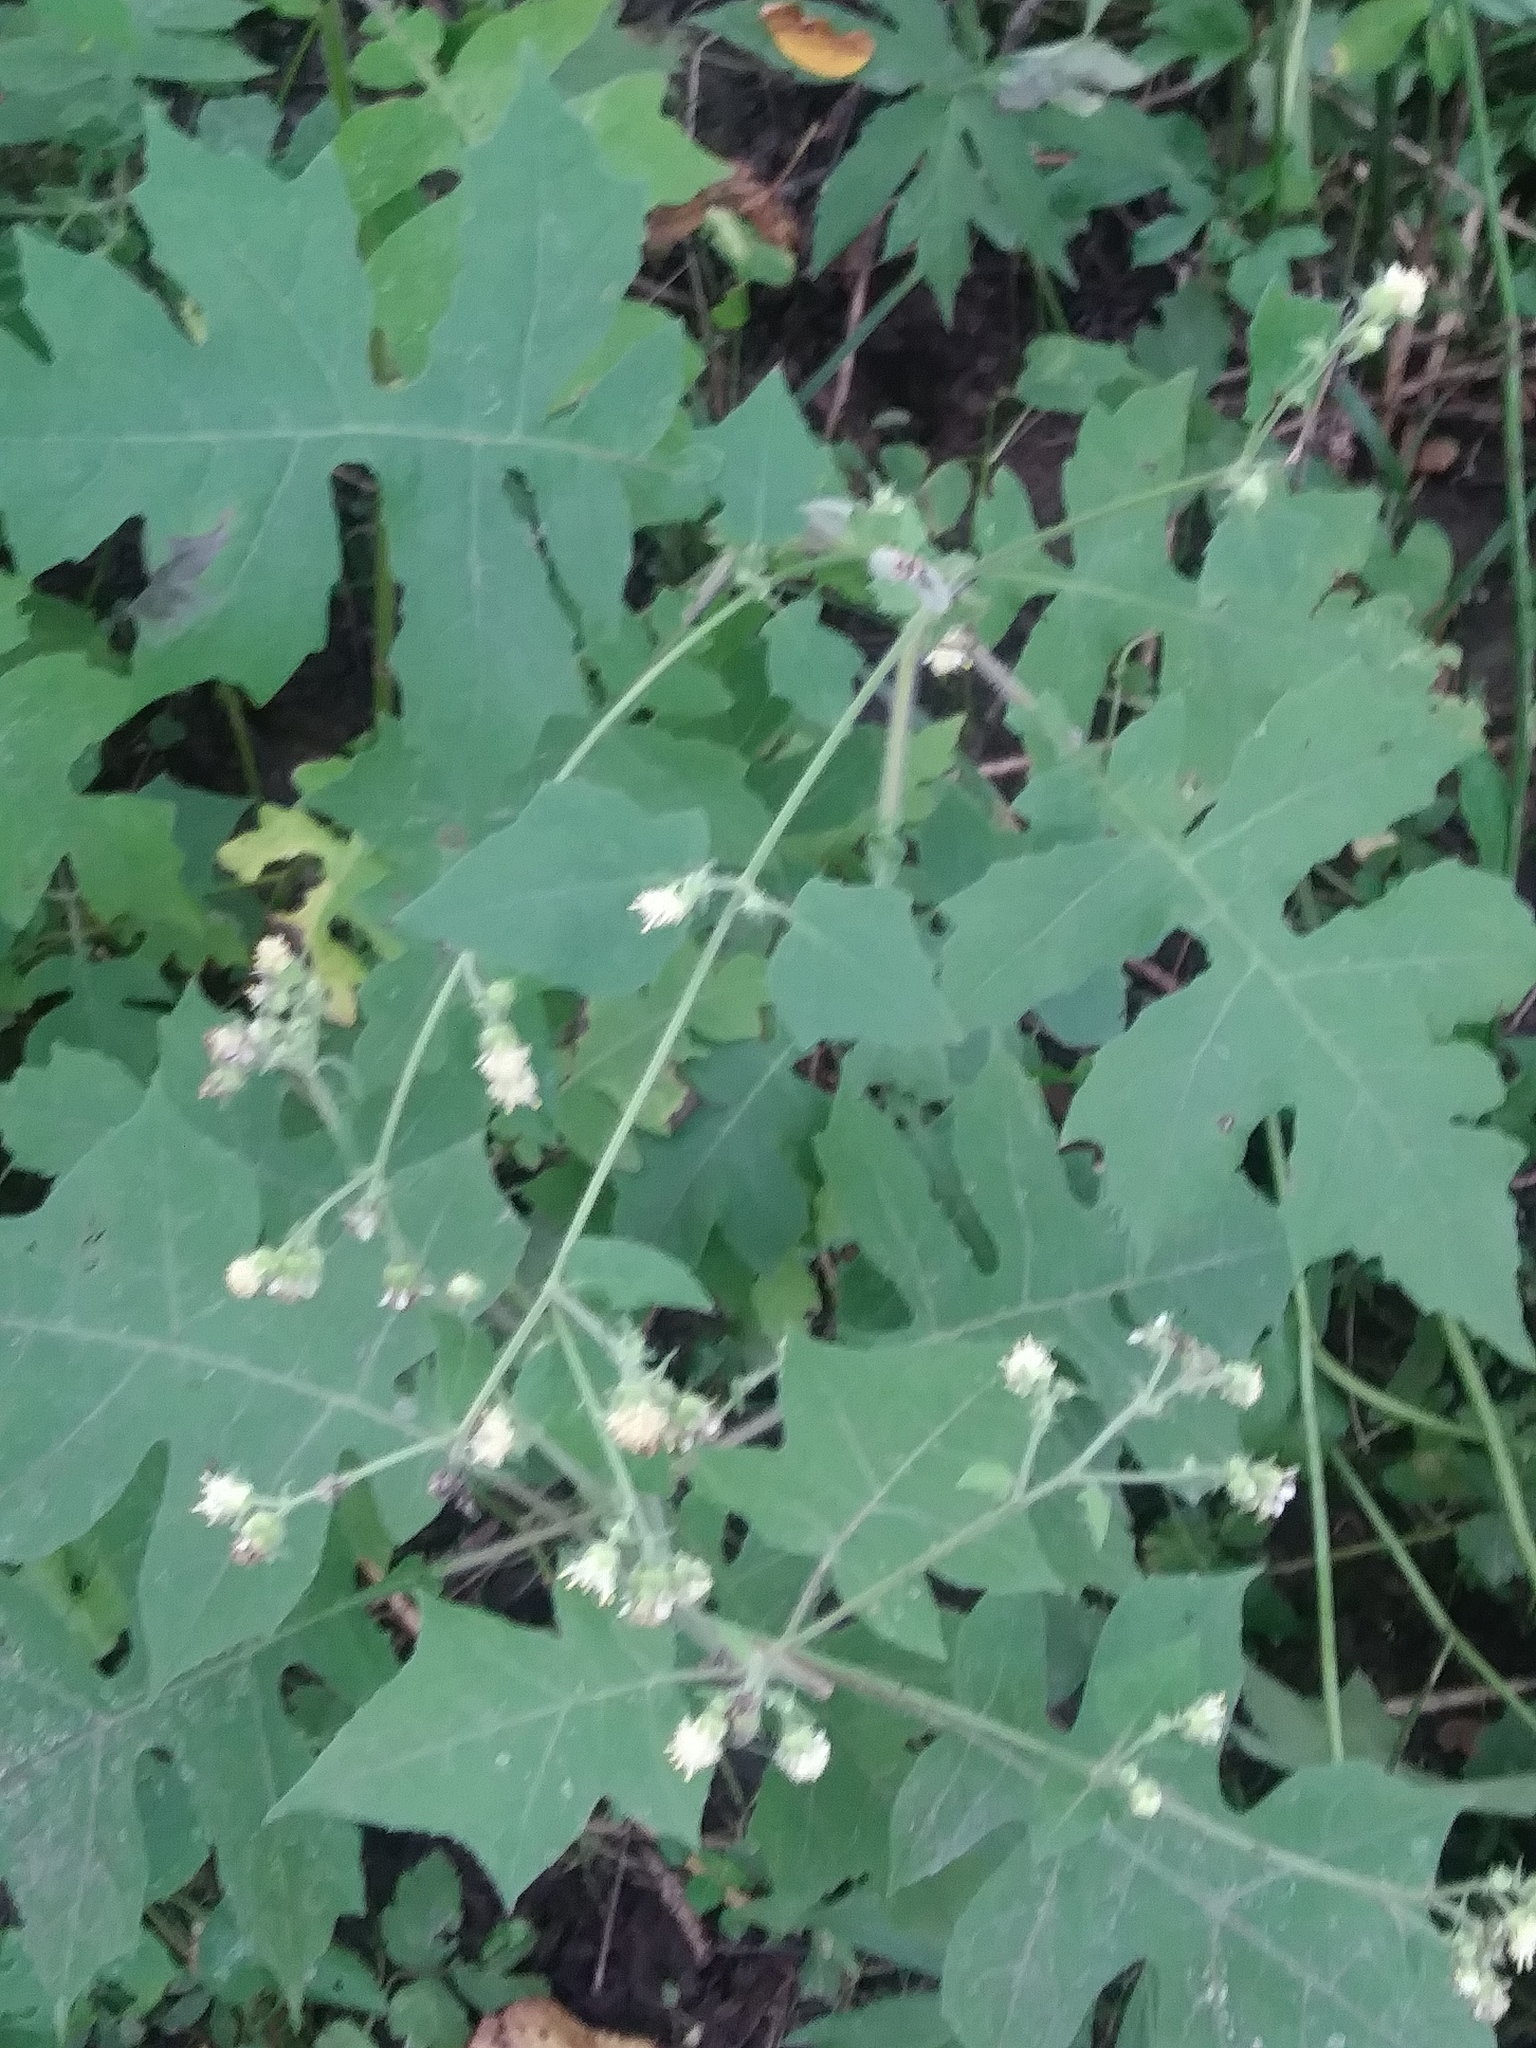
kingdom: Plantae
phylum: Tracheophyta
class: Magnoliopsida
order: Asterales
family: Asteraceae
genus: Polymnia
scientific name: Polymnia canadensis
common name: Pale-flowered leafcup
